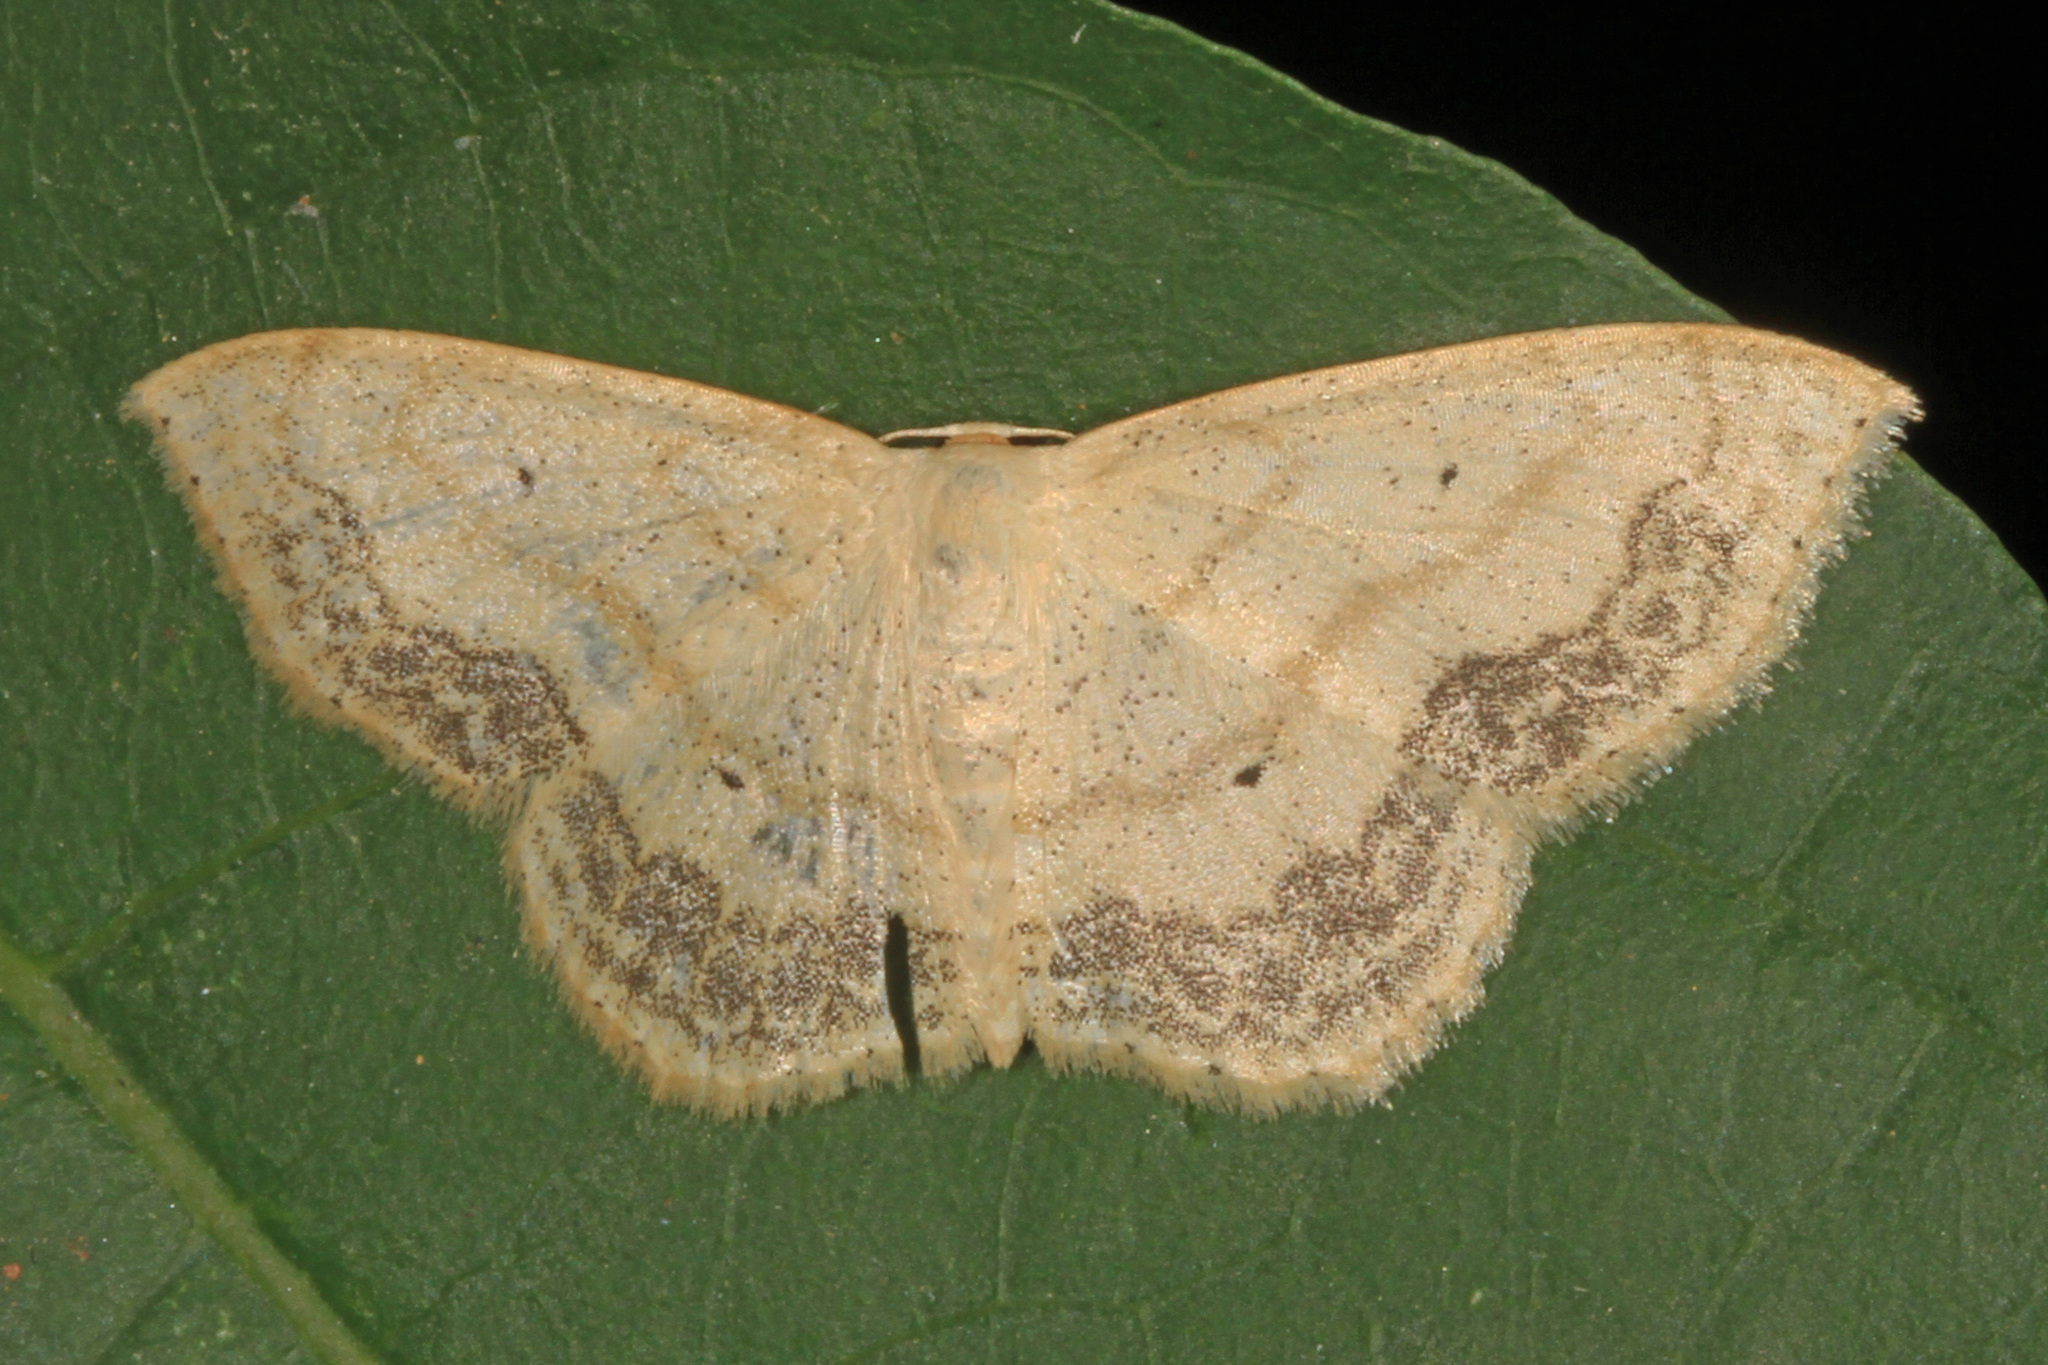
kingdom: Animalia
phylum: Arthropoda
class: Insecta
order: Lepidoptera
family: Geometridae
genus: Scopula
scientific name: Scopula limboundata
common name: Large lace border
